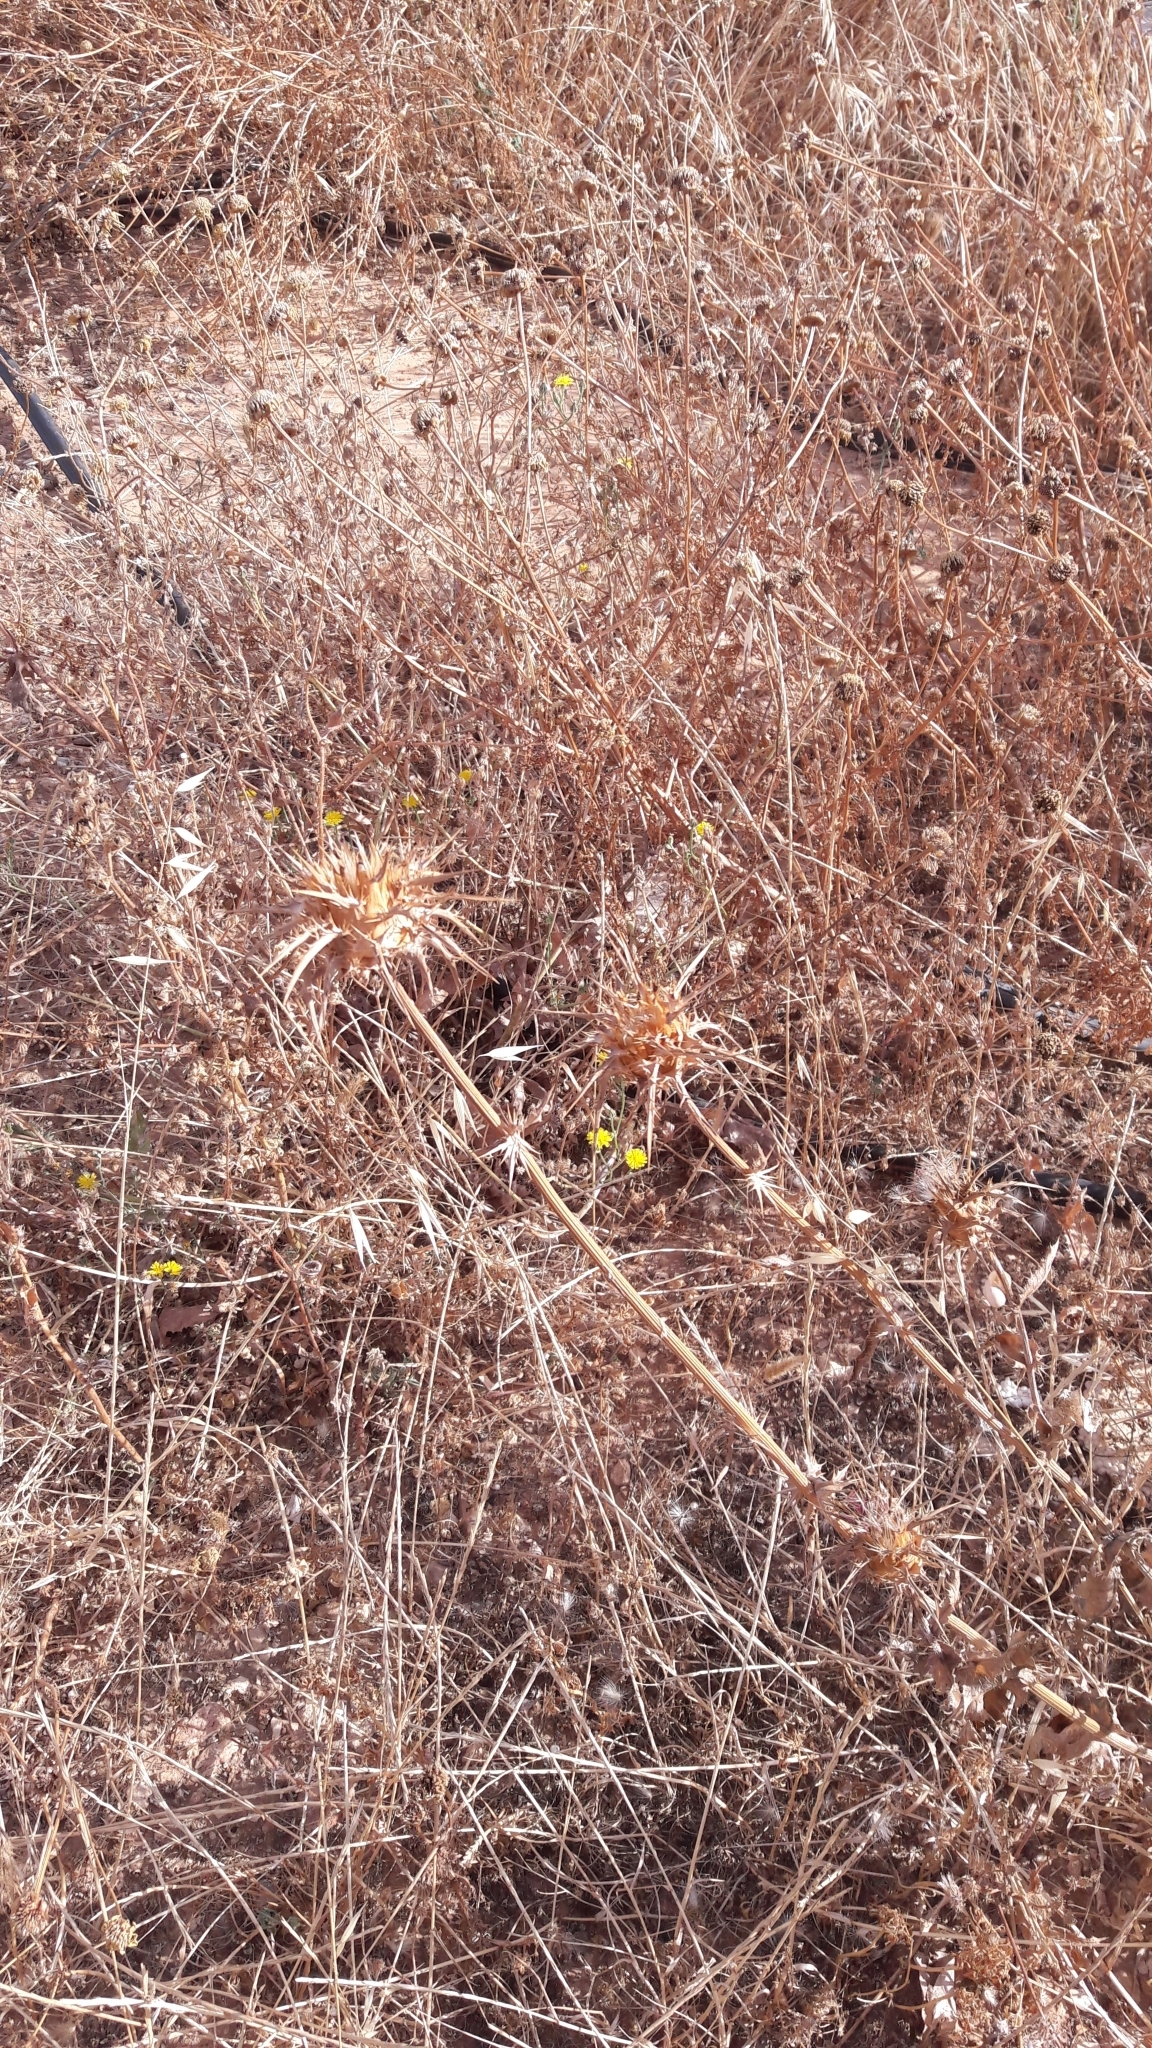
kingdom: Plantae
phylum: Tracheophyta
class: Magnoliopsida
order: Asterales
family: Asteraceae
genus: Silybum
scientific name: Silybum marianum
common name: Milk thistle
